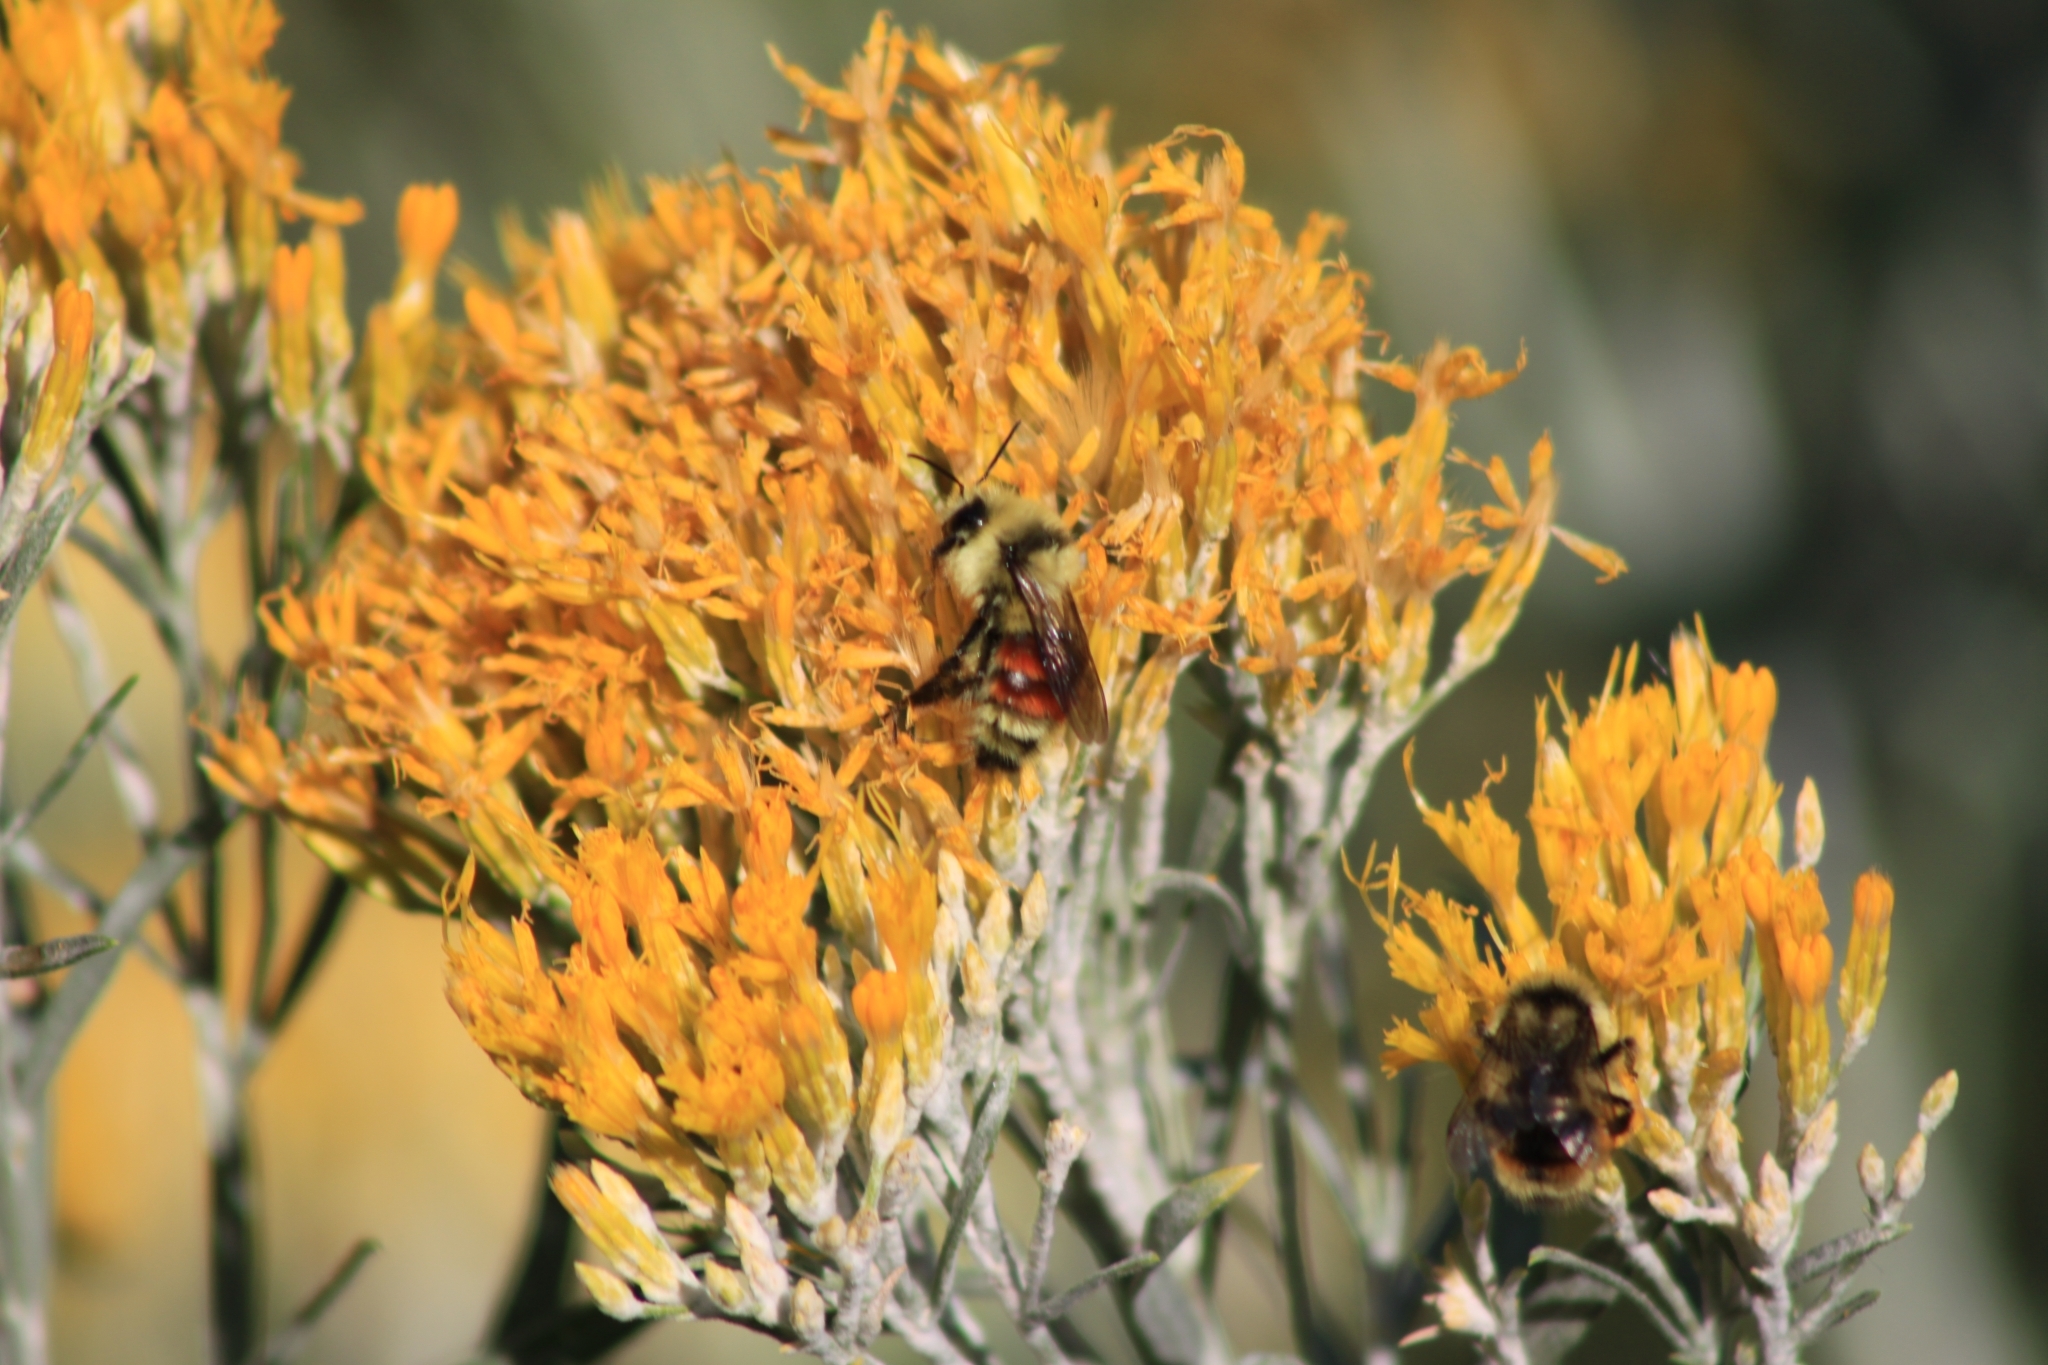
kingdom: Animalia
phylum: Arthropoda
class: Insecta
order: Hymenoptera
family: Apidae
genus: Bombus
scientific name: Bombus huntii
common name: Hunt bumble bee
